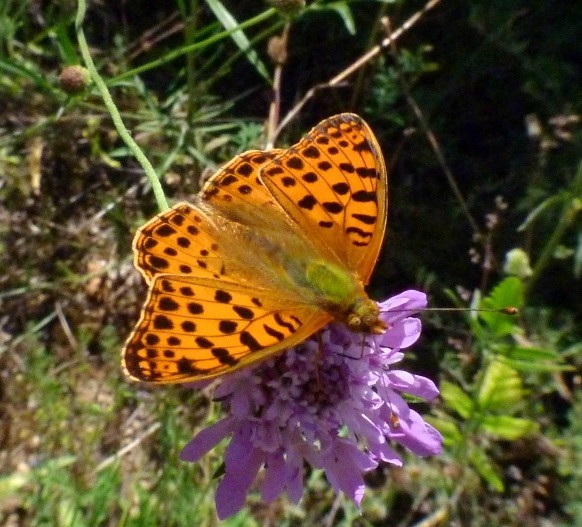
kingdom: Animalia
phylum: Arthropoda
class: Insecta
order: Lepidoptera
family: Nymphalidae
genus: Issoria
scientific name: Issoria lathonia
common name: Queen of spain fritillary
